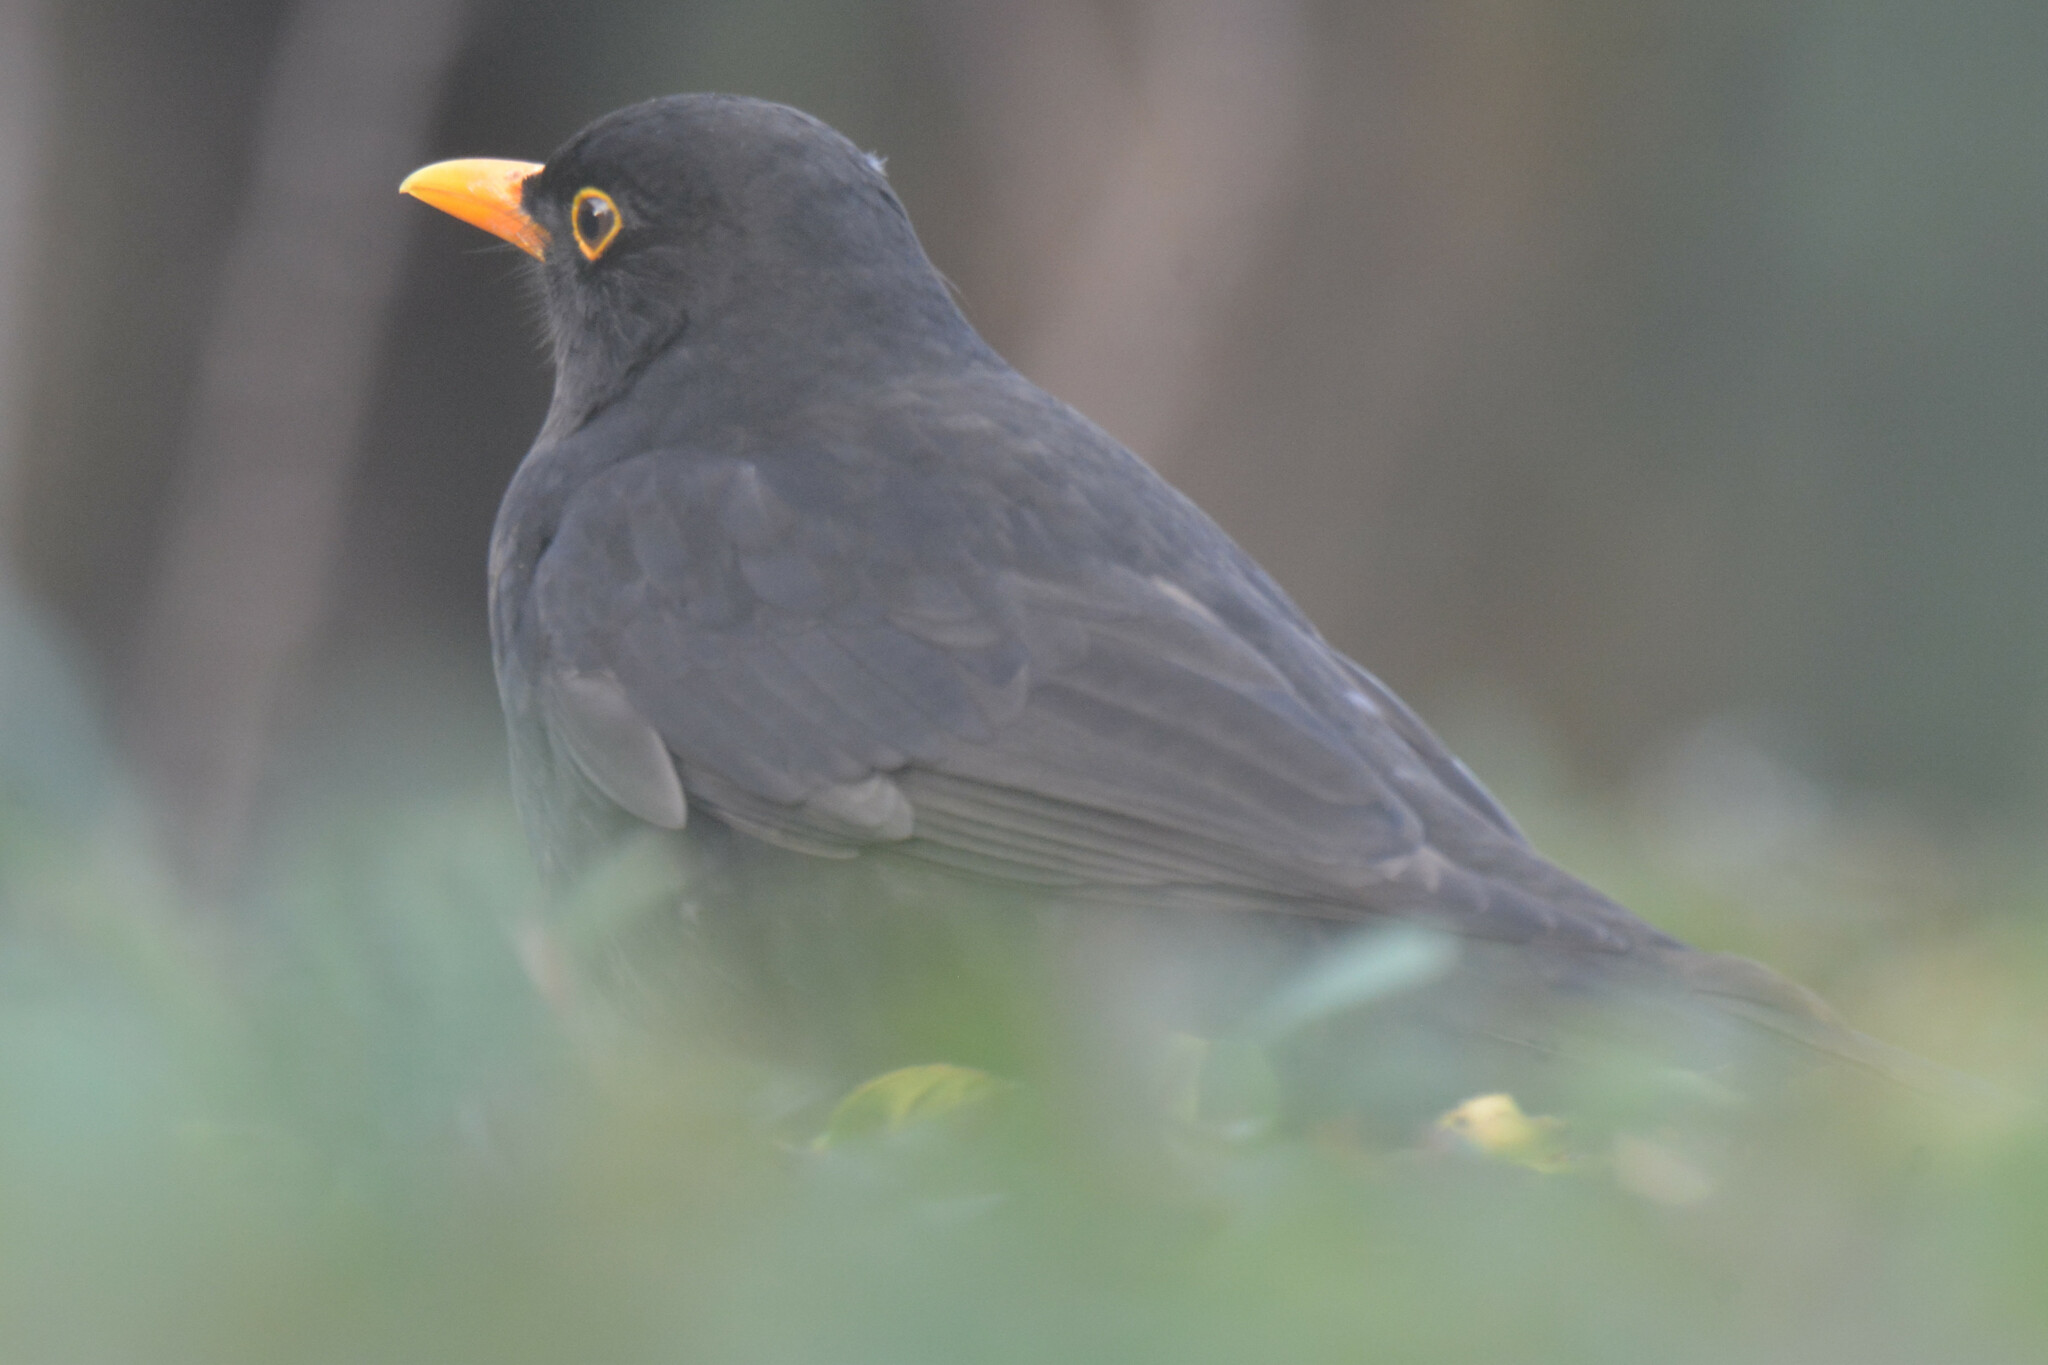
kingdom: Animalia
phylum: Chordata
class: Aves
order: Passeriformes
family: Turdidae
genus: Turdus
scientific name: Turdus merula
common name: Common blackbird
